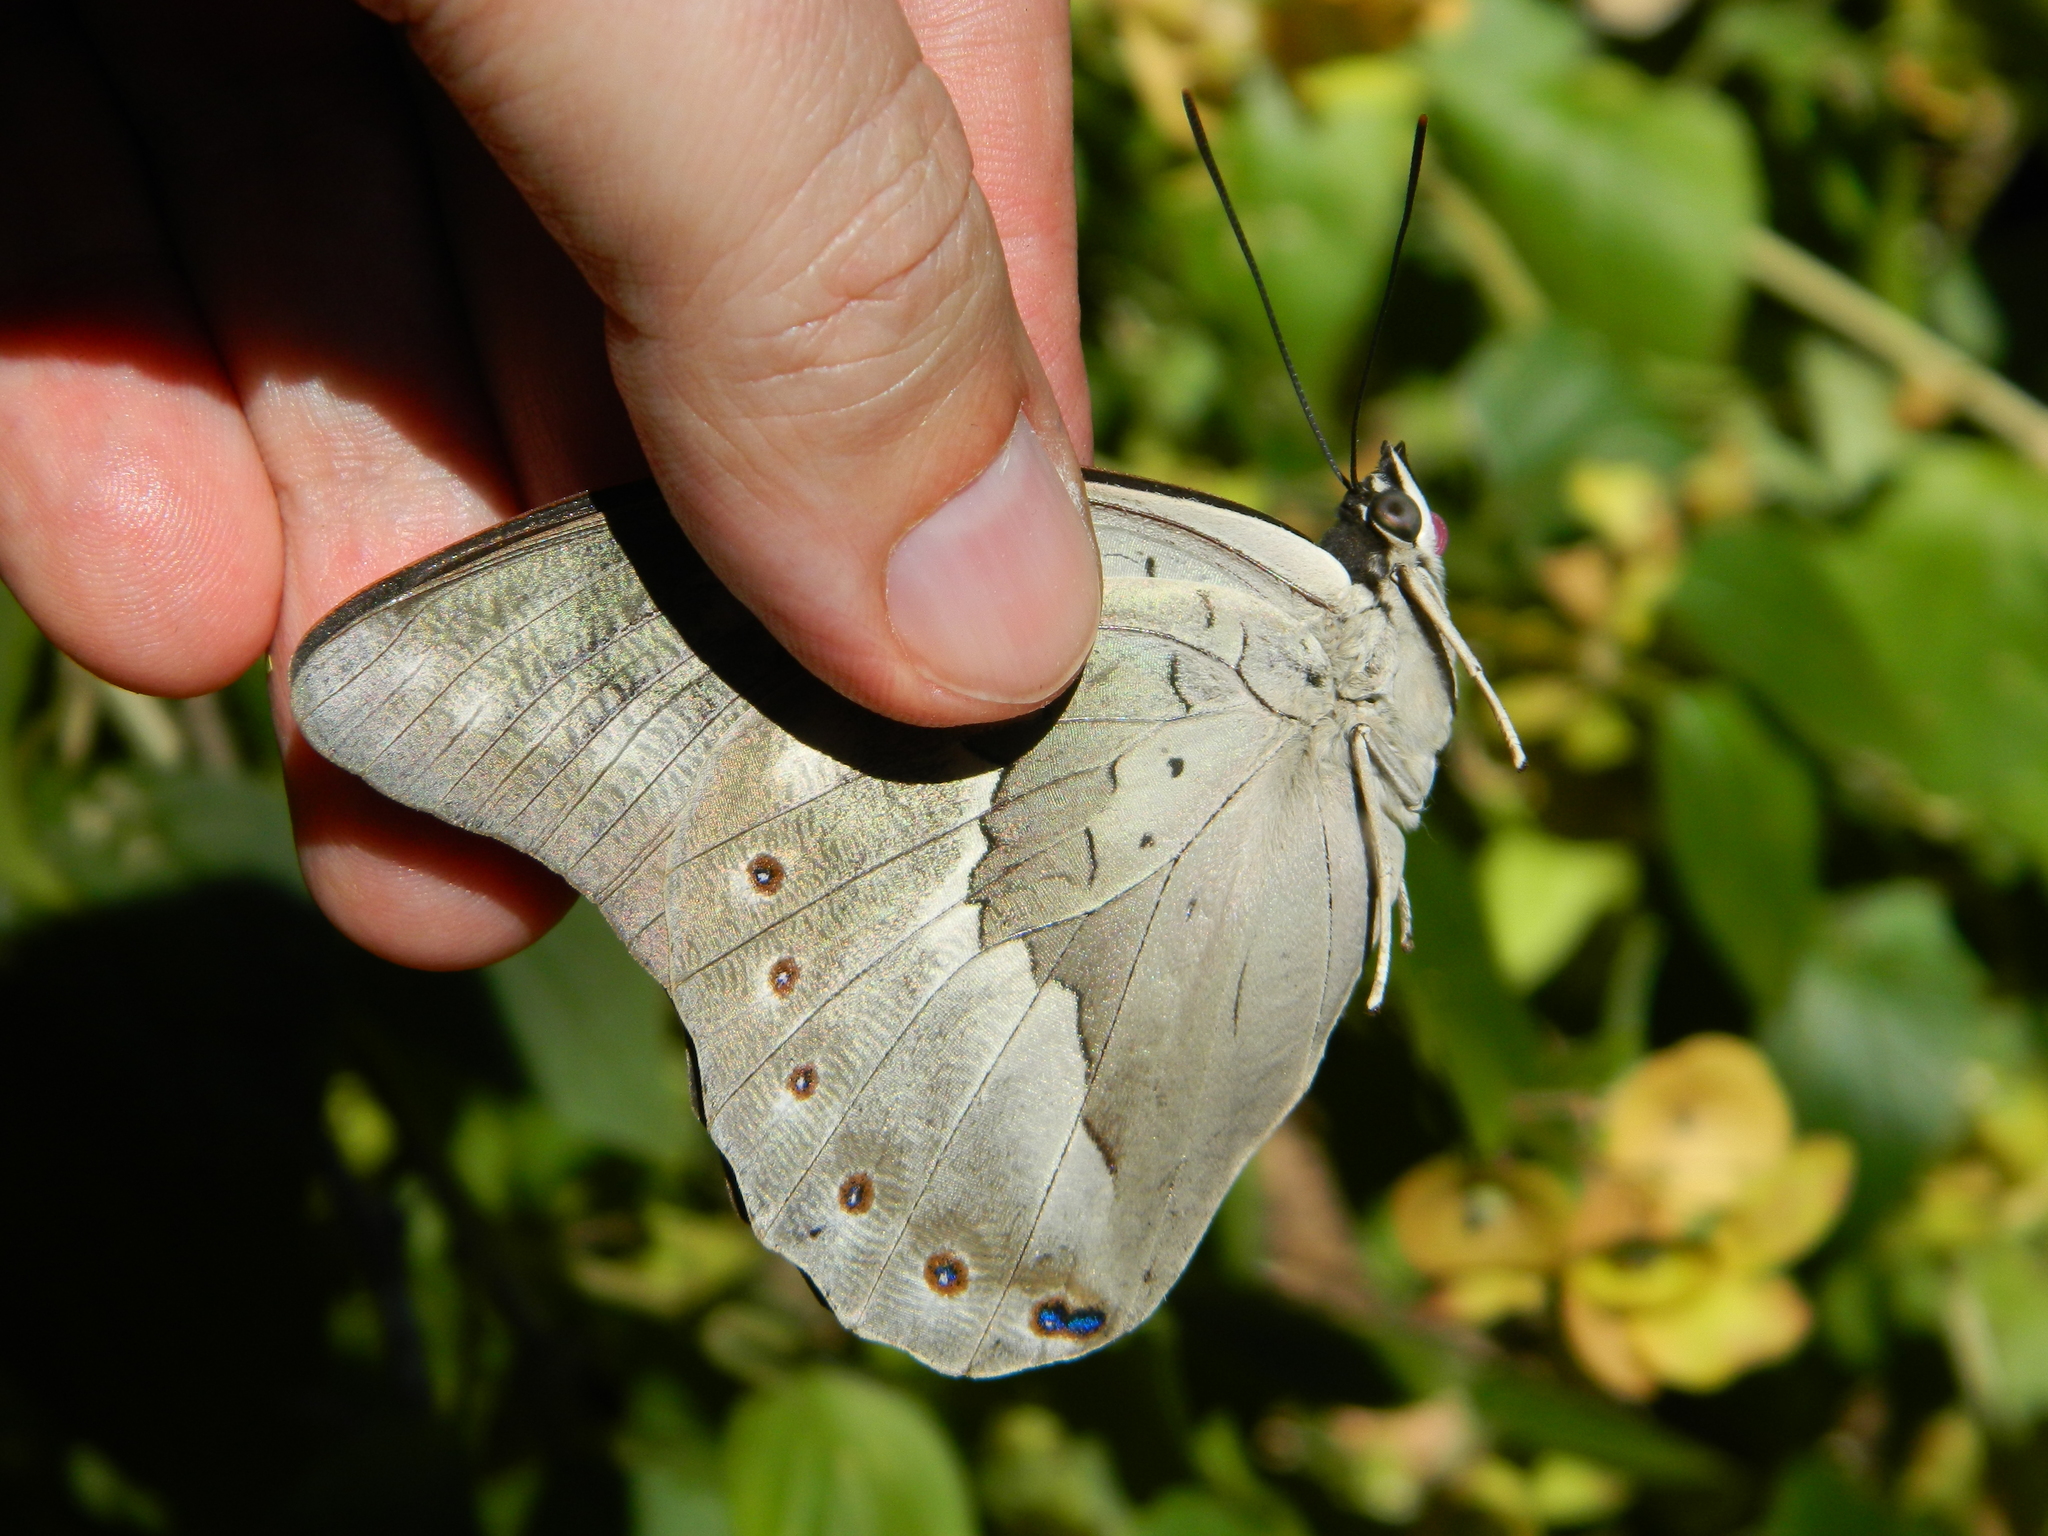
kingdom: Animalia
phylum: Arthropoda
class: Insecta
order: Lepidoptera
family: Nymphalidae
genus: Prepona
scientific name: Prepona demophoon
